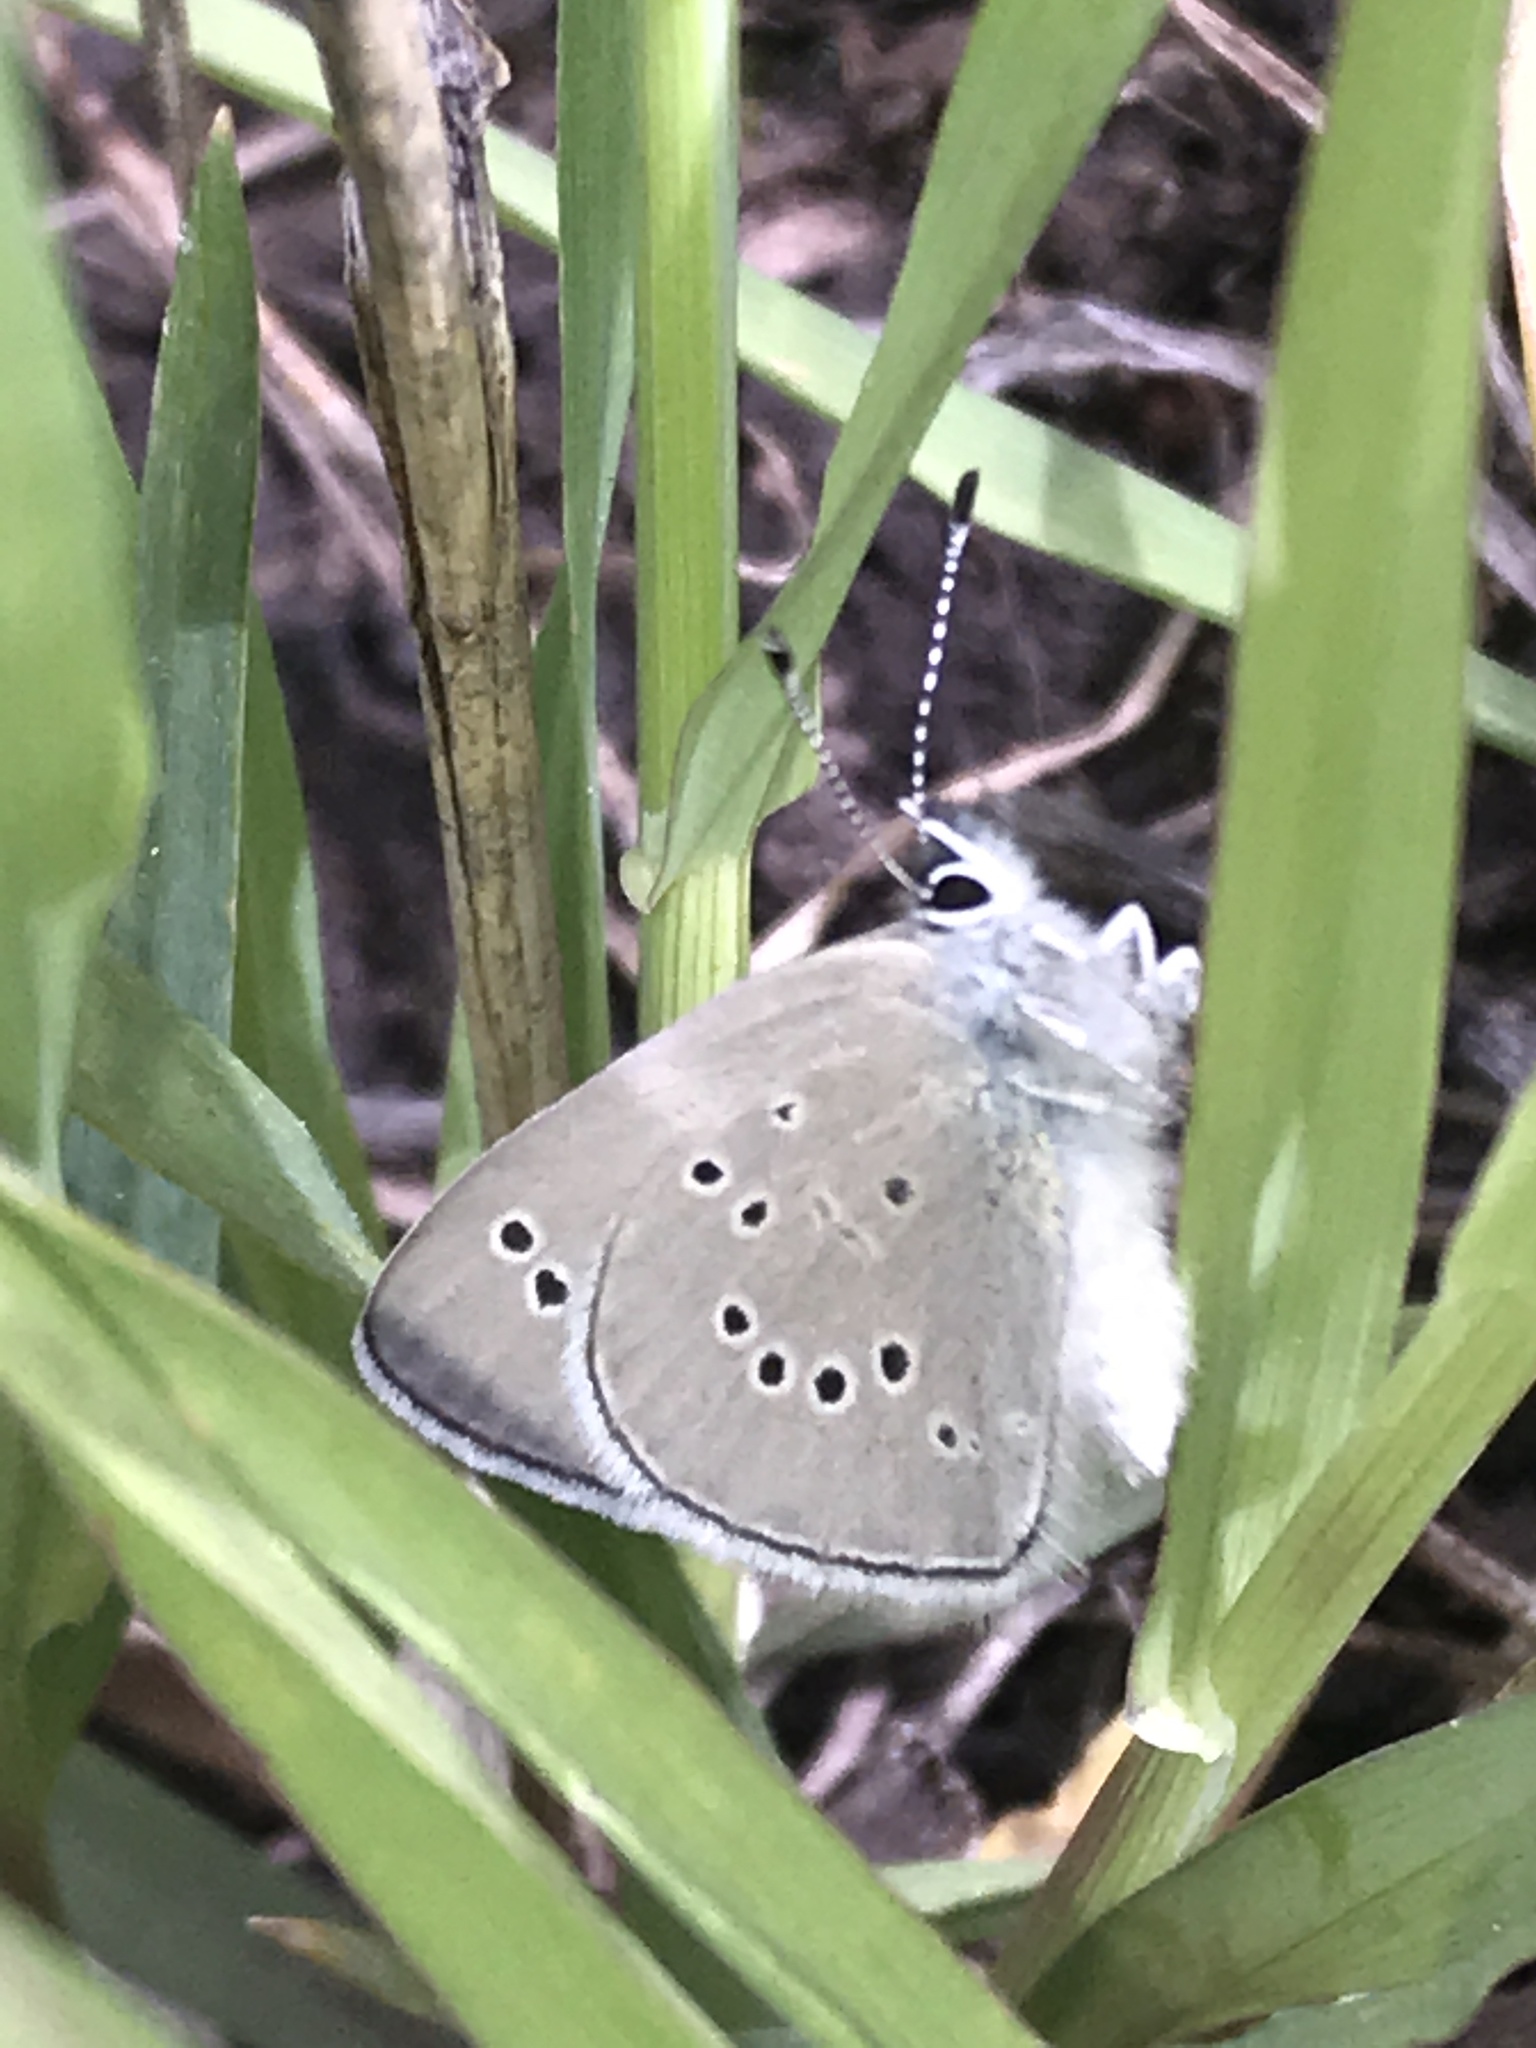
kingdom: Animalia
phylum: Arthropoda
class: Insecta
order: Lepidoptera
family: Lycaenidae
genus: Glaucopsyche
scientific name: Glaucopsyche lygdamus
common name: Silvery blue
